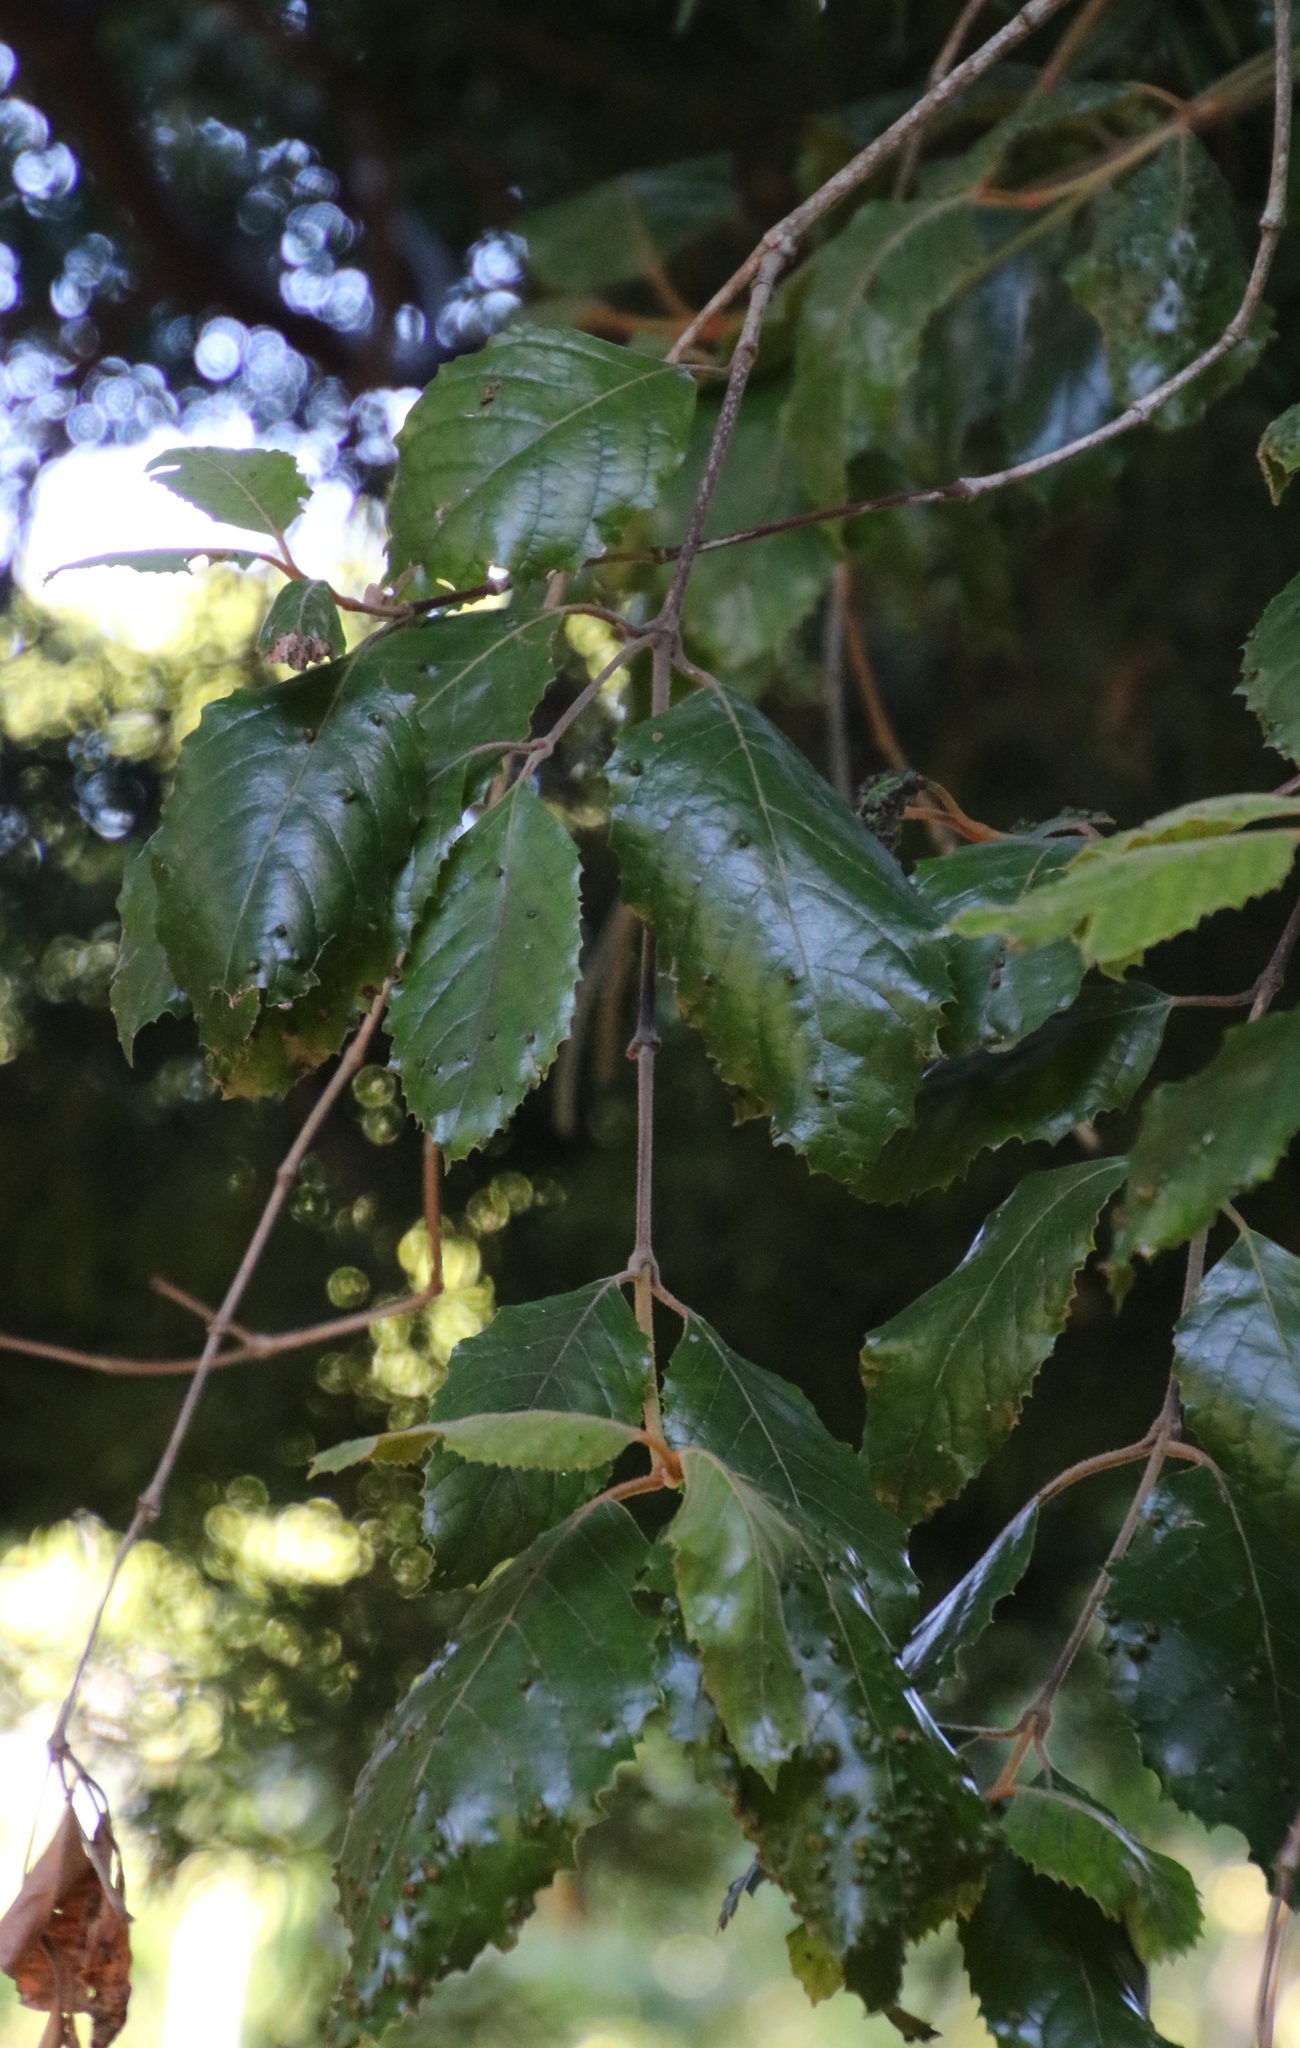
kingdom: Plantae
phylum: Tracheophyta
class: Magnoliopsida
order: Cornales
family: Curtisiaceae
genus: Curtisia
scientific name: Curtisia dentata
